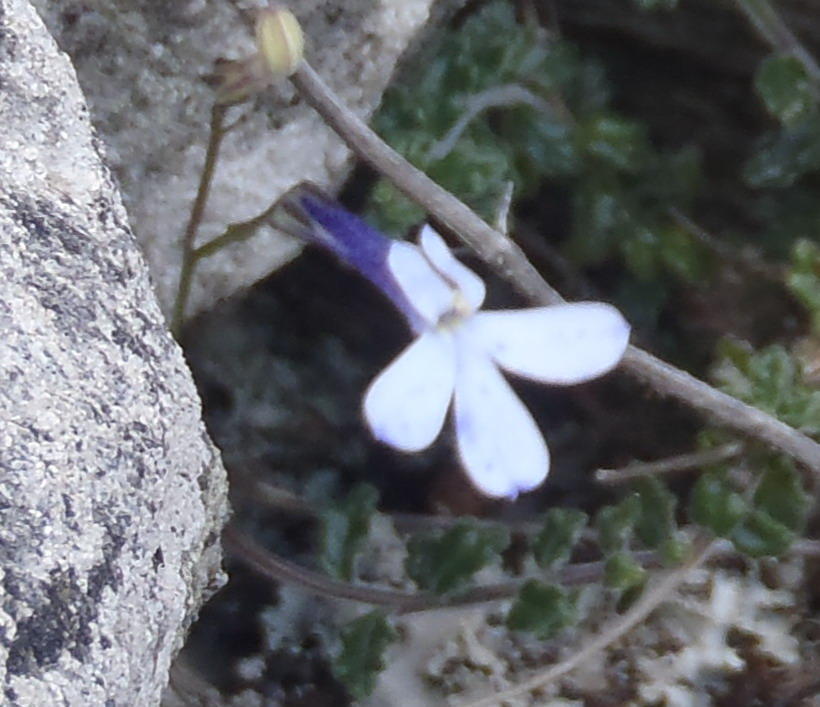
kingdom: Plantae
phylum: Tracheophyta
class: Magnoliopsida
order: Asterales
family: Campanulaceae
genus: Lobelia
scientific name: Lobelia dichroma
